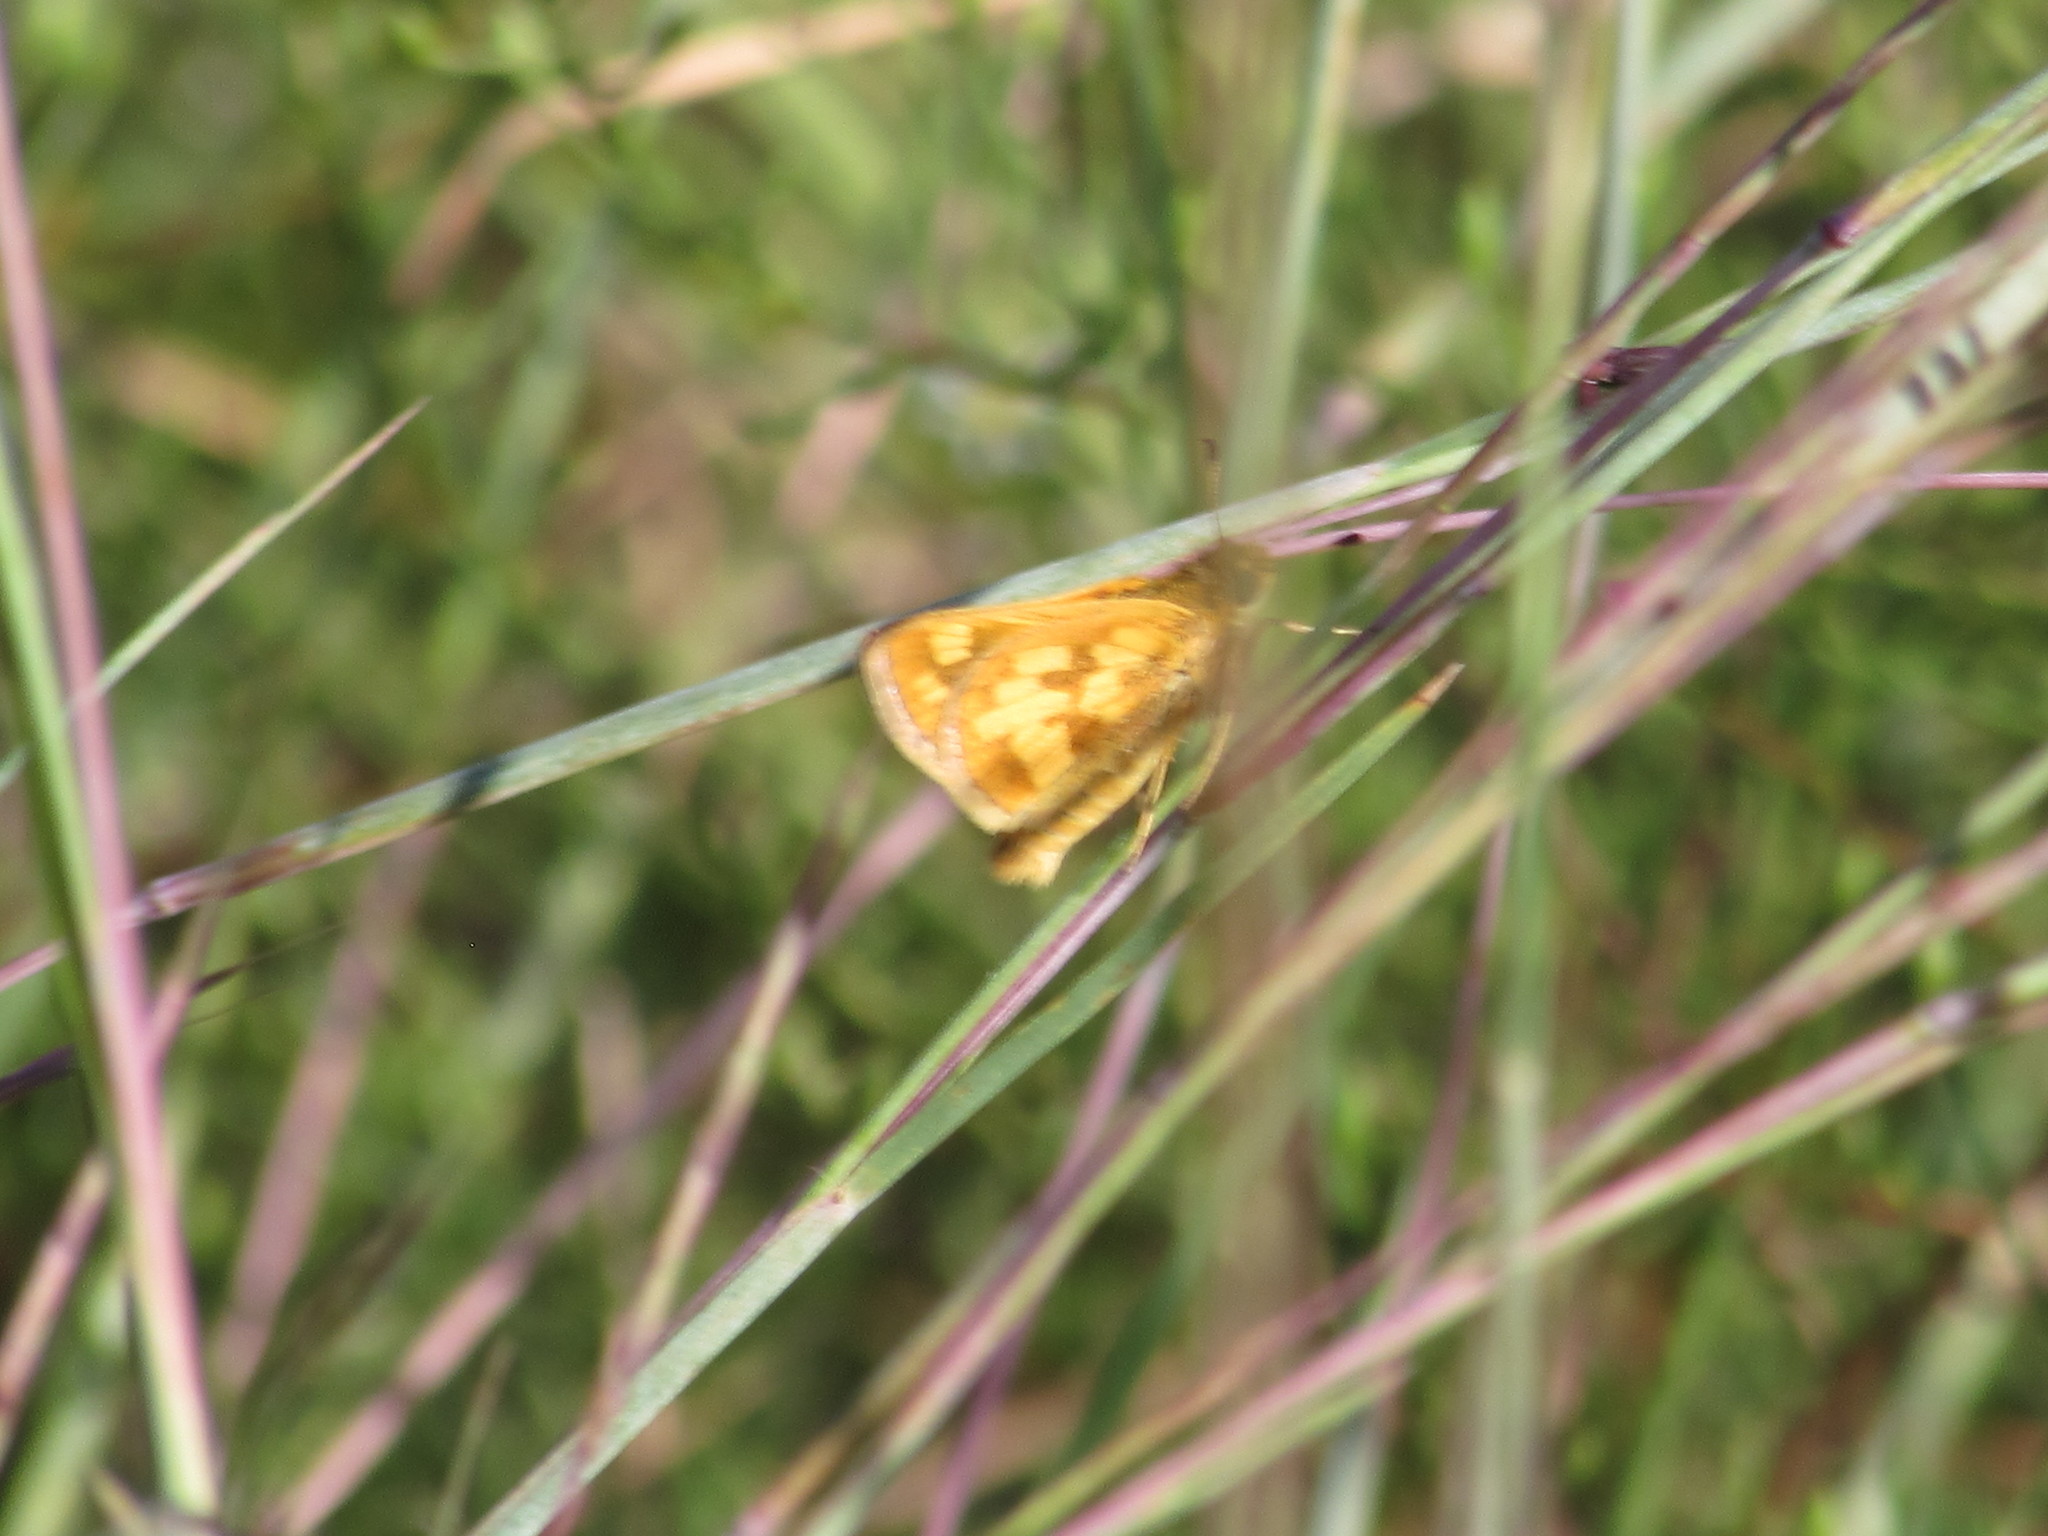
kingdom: Animalia
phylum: Arthropoda
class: Insecta
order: Lepidoptera
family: Hesperiidae
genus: Polites
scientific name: Polites coras
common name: Peck's skipper
